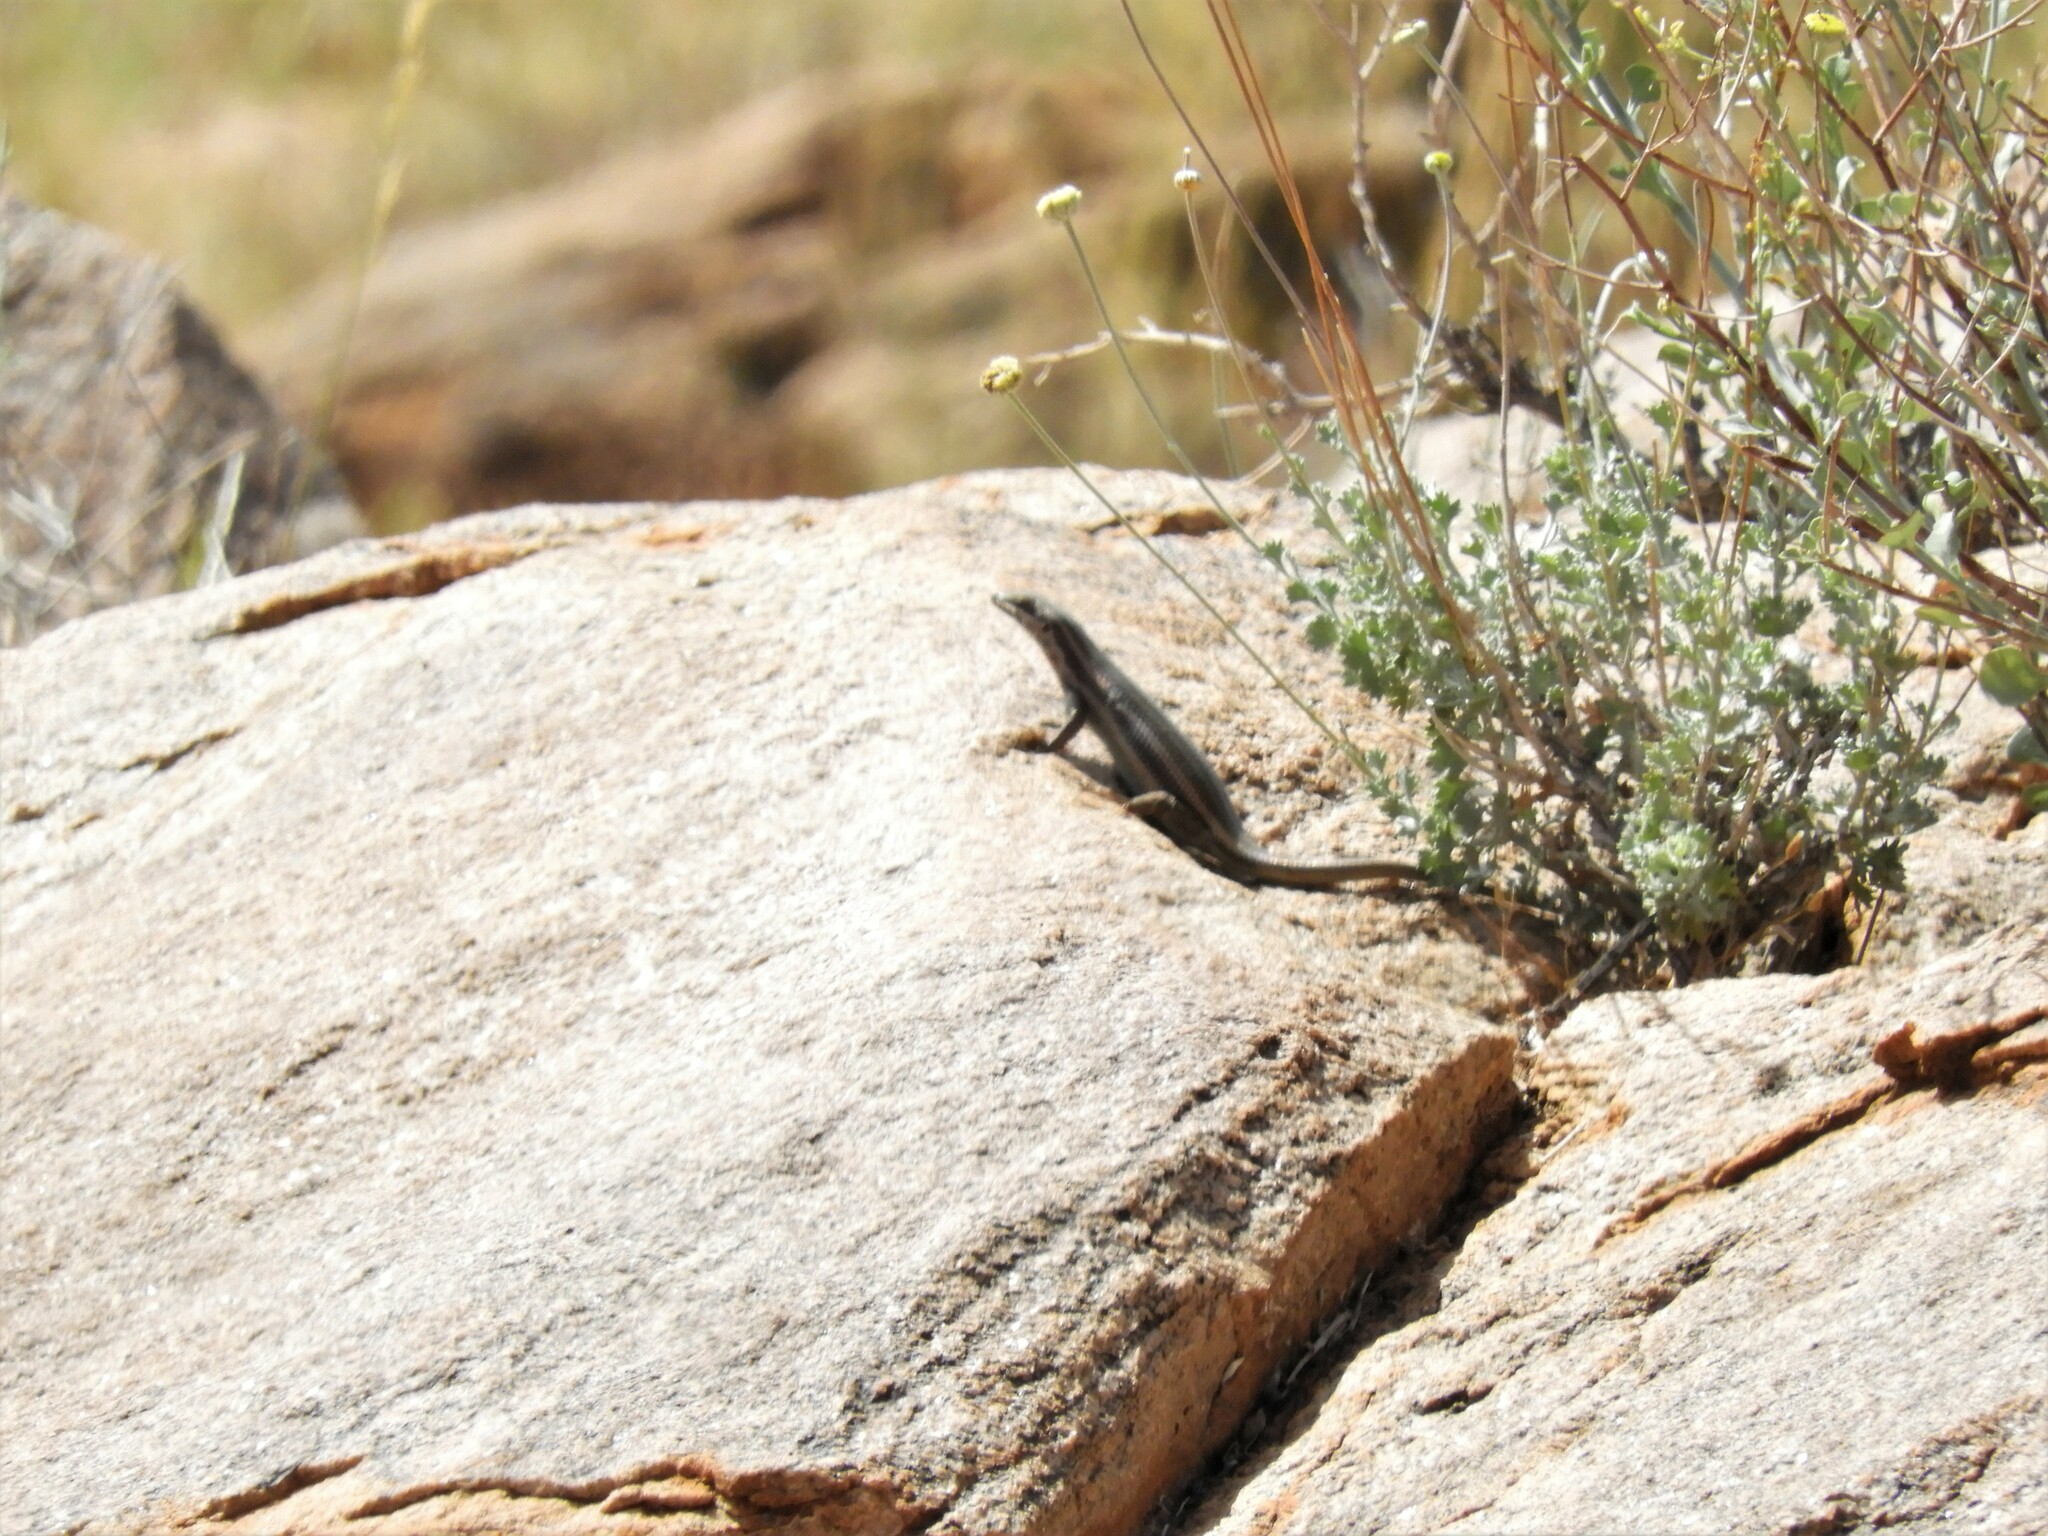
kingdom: Animalia
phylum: Chordata
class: Squamata
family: Scincidae
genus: Trachylepis
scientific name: Trachylepis sulcata
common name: Western rock skink
